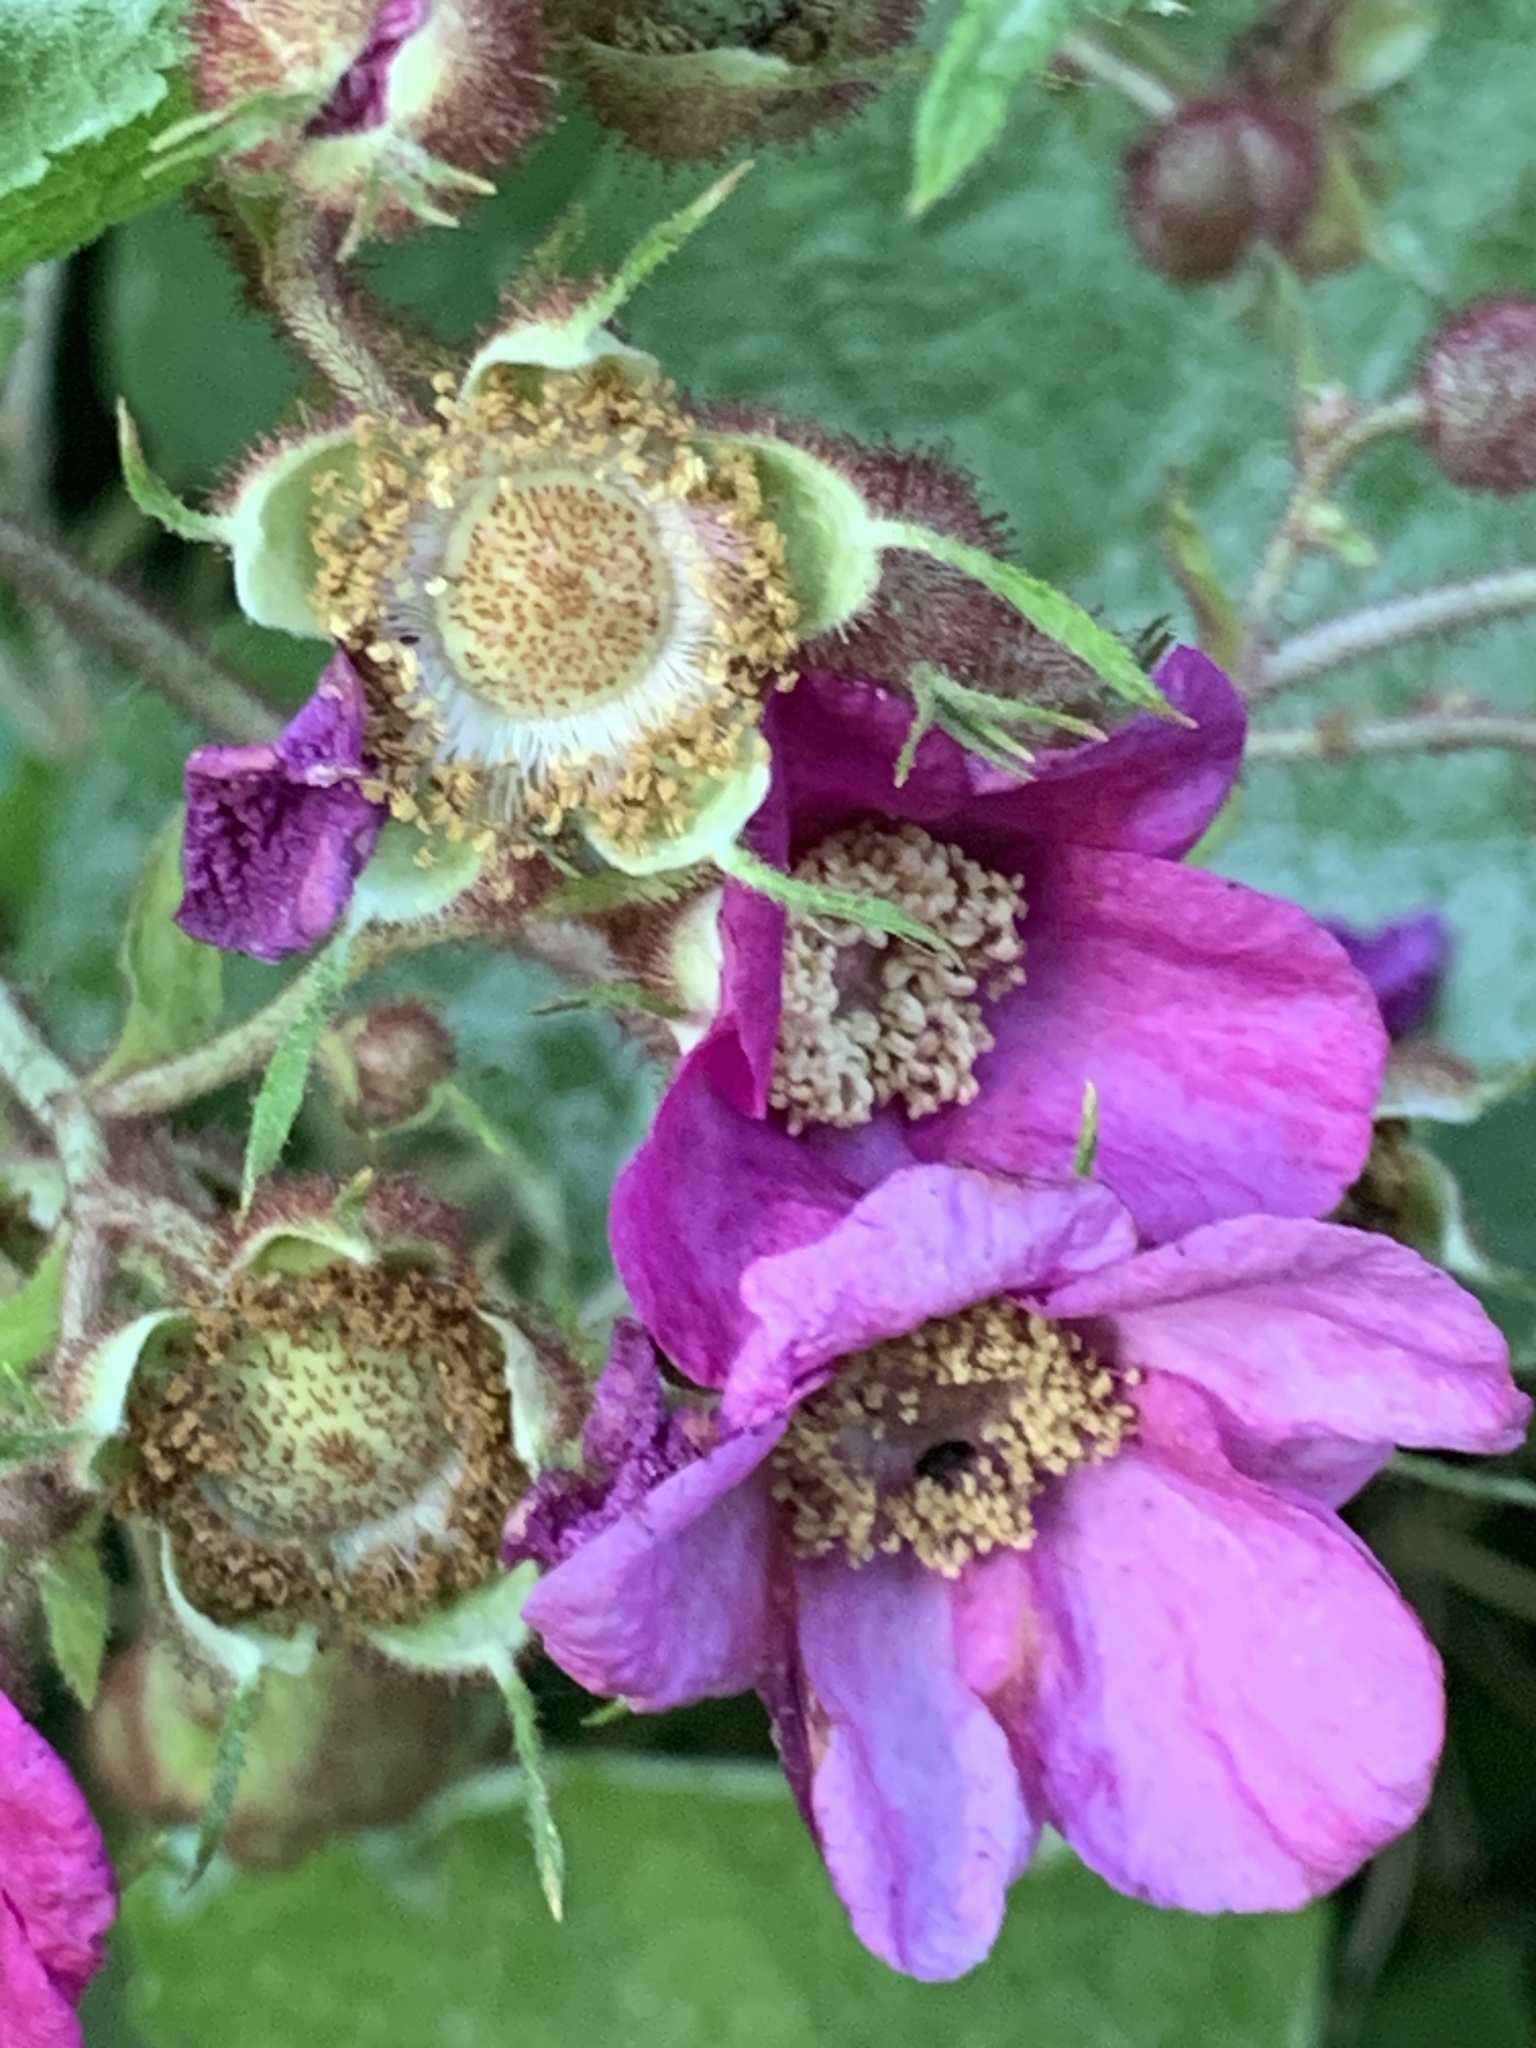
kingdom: Plantae
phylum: Tracheophyta
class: Magnoliopsida
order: Rosales
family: Rosaceae
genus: Rubus
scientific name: Rubus odoratus
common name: Purple-flowered raspberry
